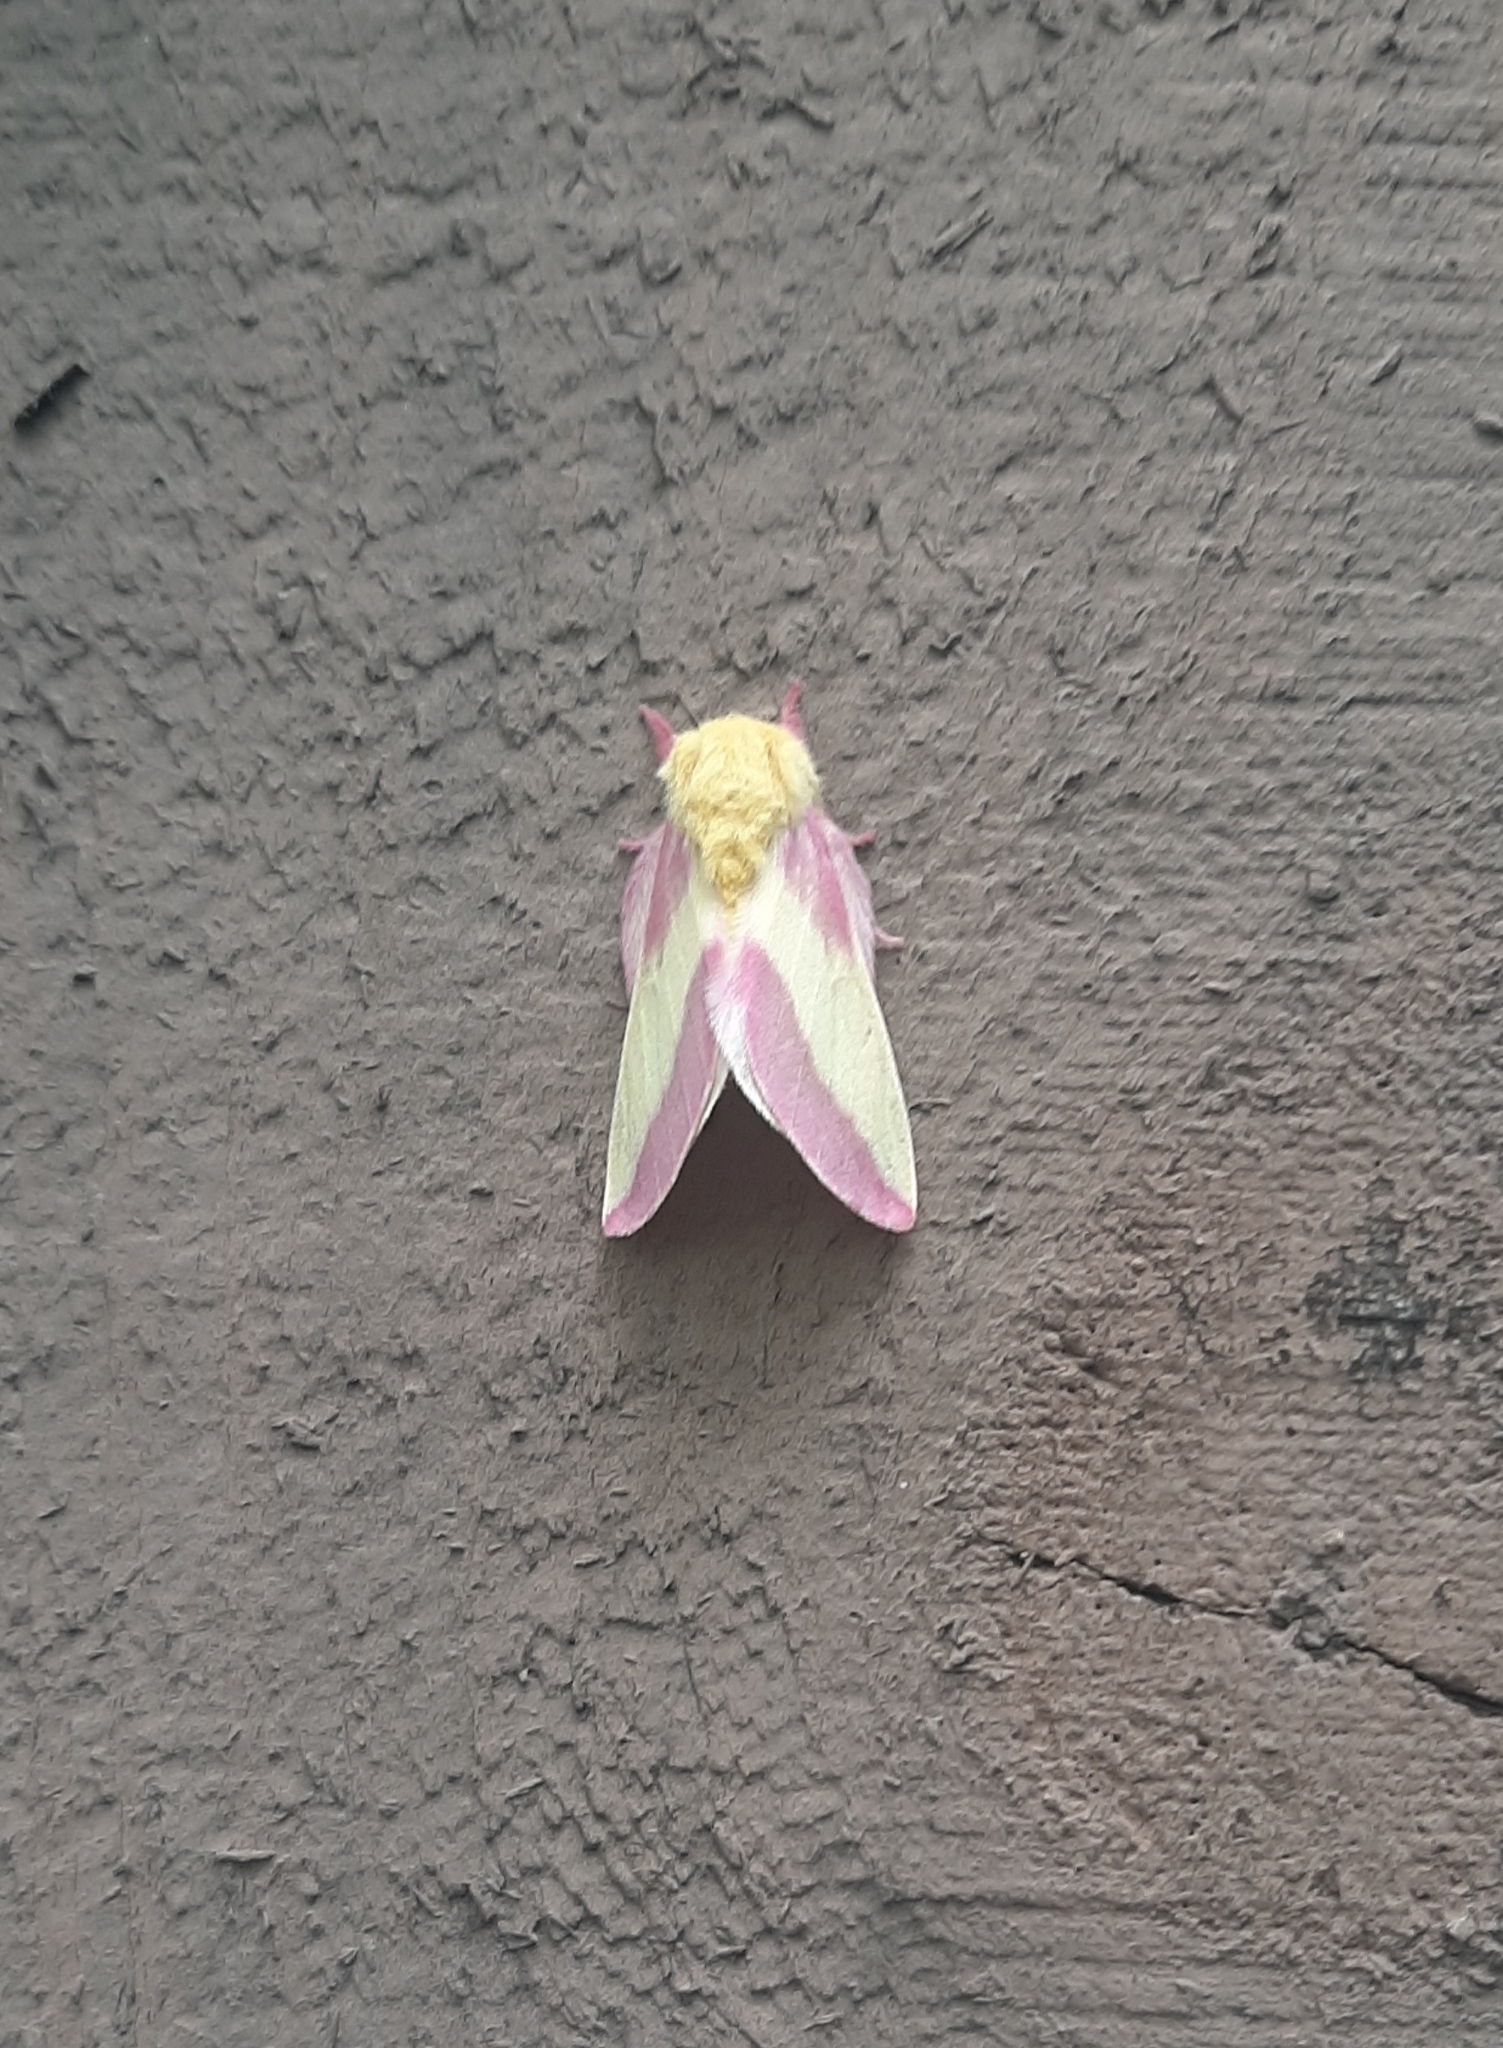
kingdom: Animalia
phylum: Arthropoda
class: Insecta
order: Lepidoptera
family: Saturniidae
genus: Dryocampa
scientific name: Dryocampa rubicunda
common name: Rosy maple moth
